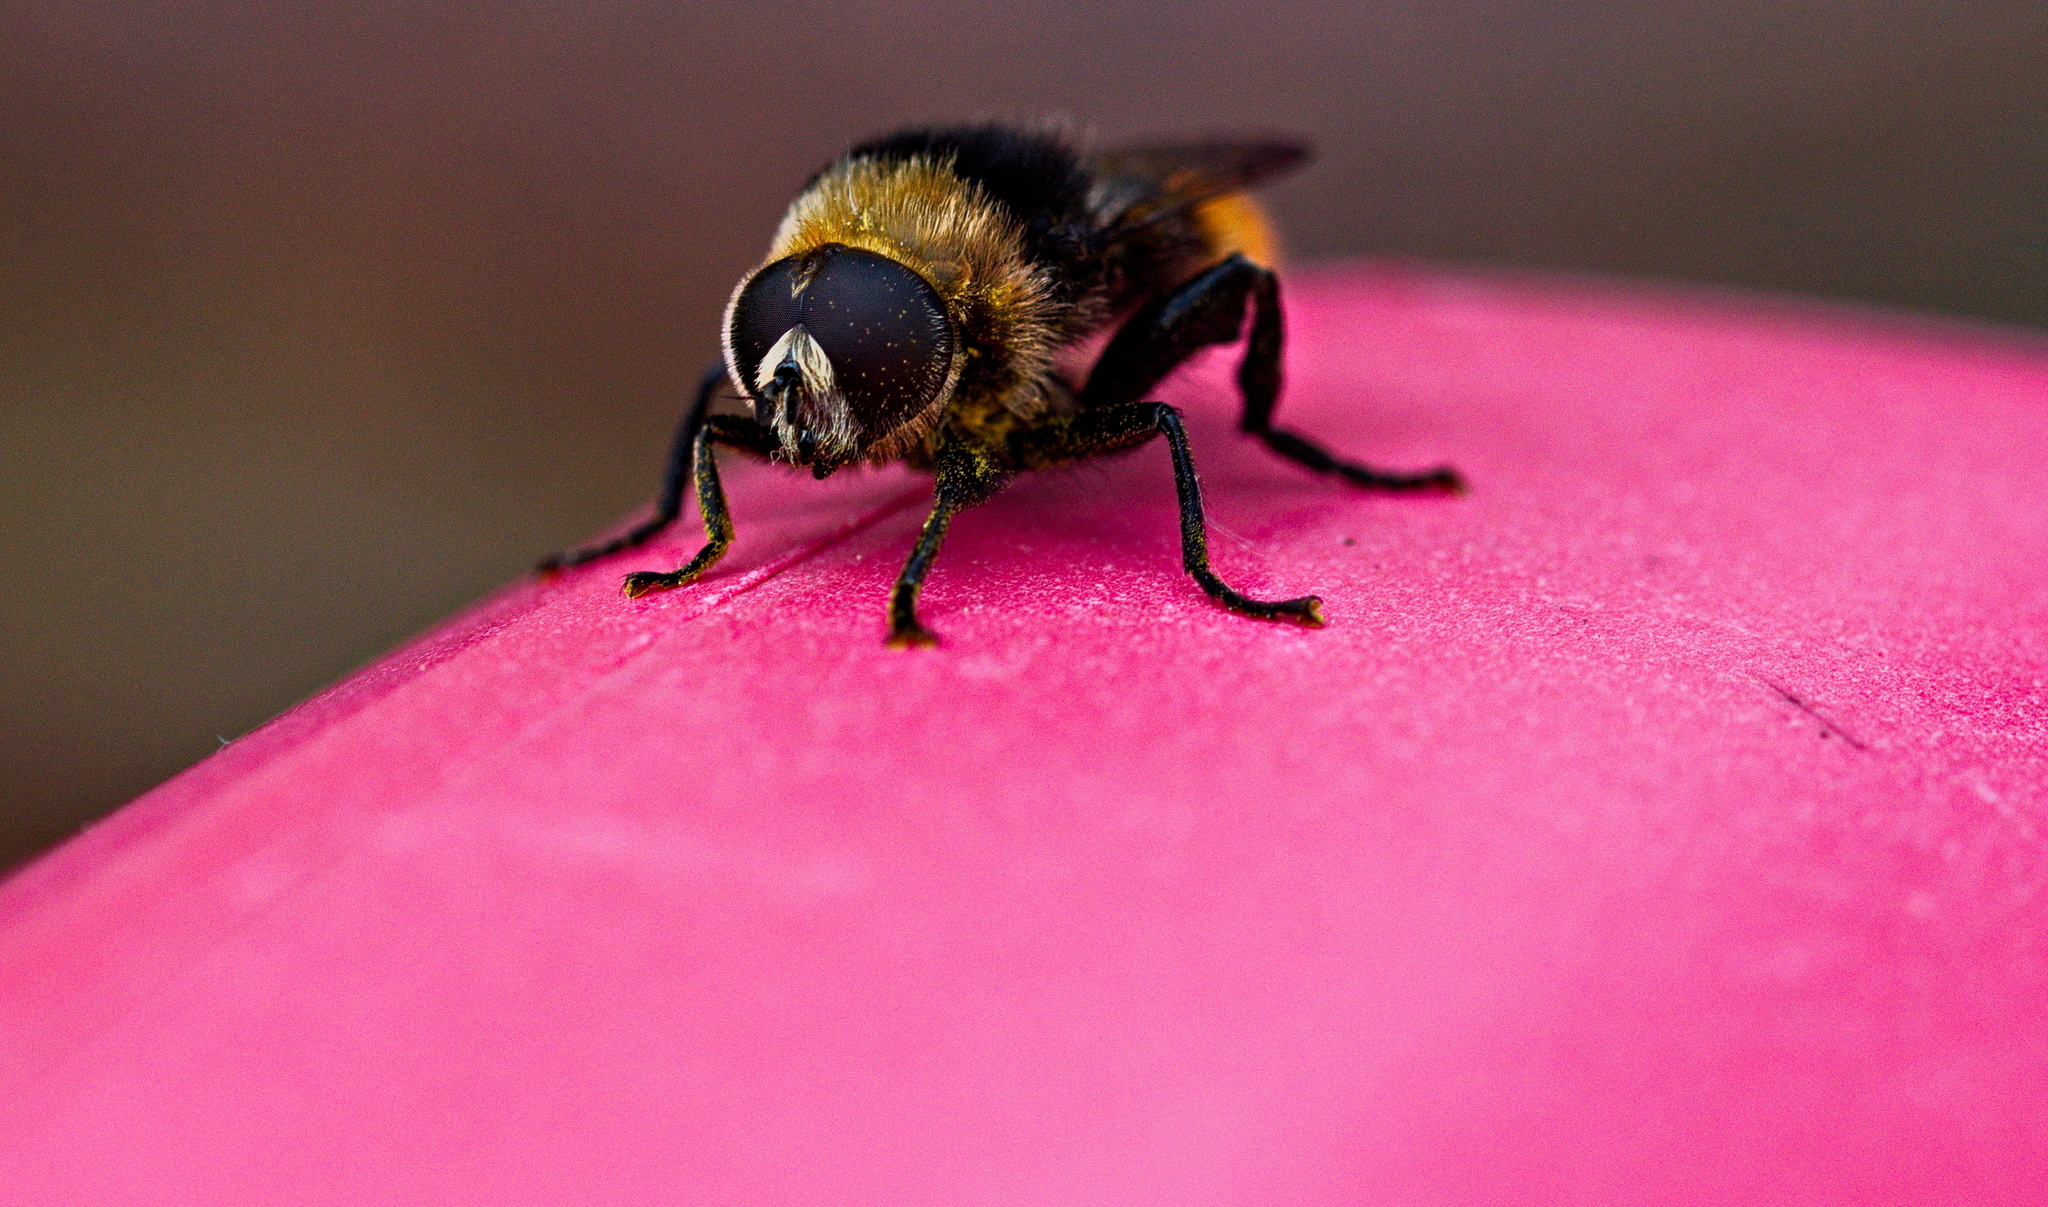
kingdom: Animalia
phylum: Arthropoda
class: Insecta
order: Diptera
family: Syrphidae
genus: Merodon
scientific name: Merodon equestris
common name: Greater bulb-fly
